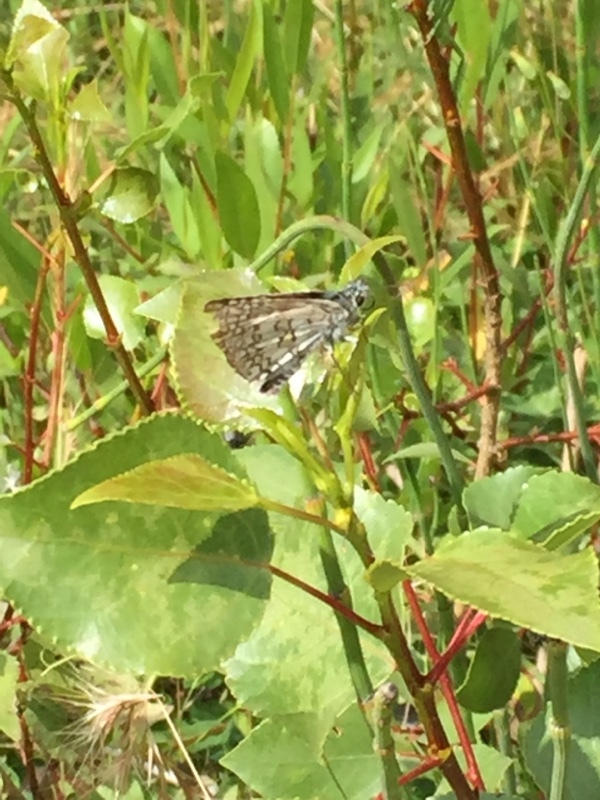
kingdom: Animalia
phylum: Arthropoda
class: Insecta
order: Lepidoptera
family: Hesperiidae
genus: Pyrgus
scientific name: Pyrgus sidae
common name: Yellow-banded skipper
